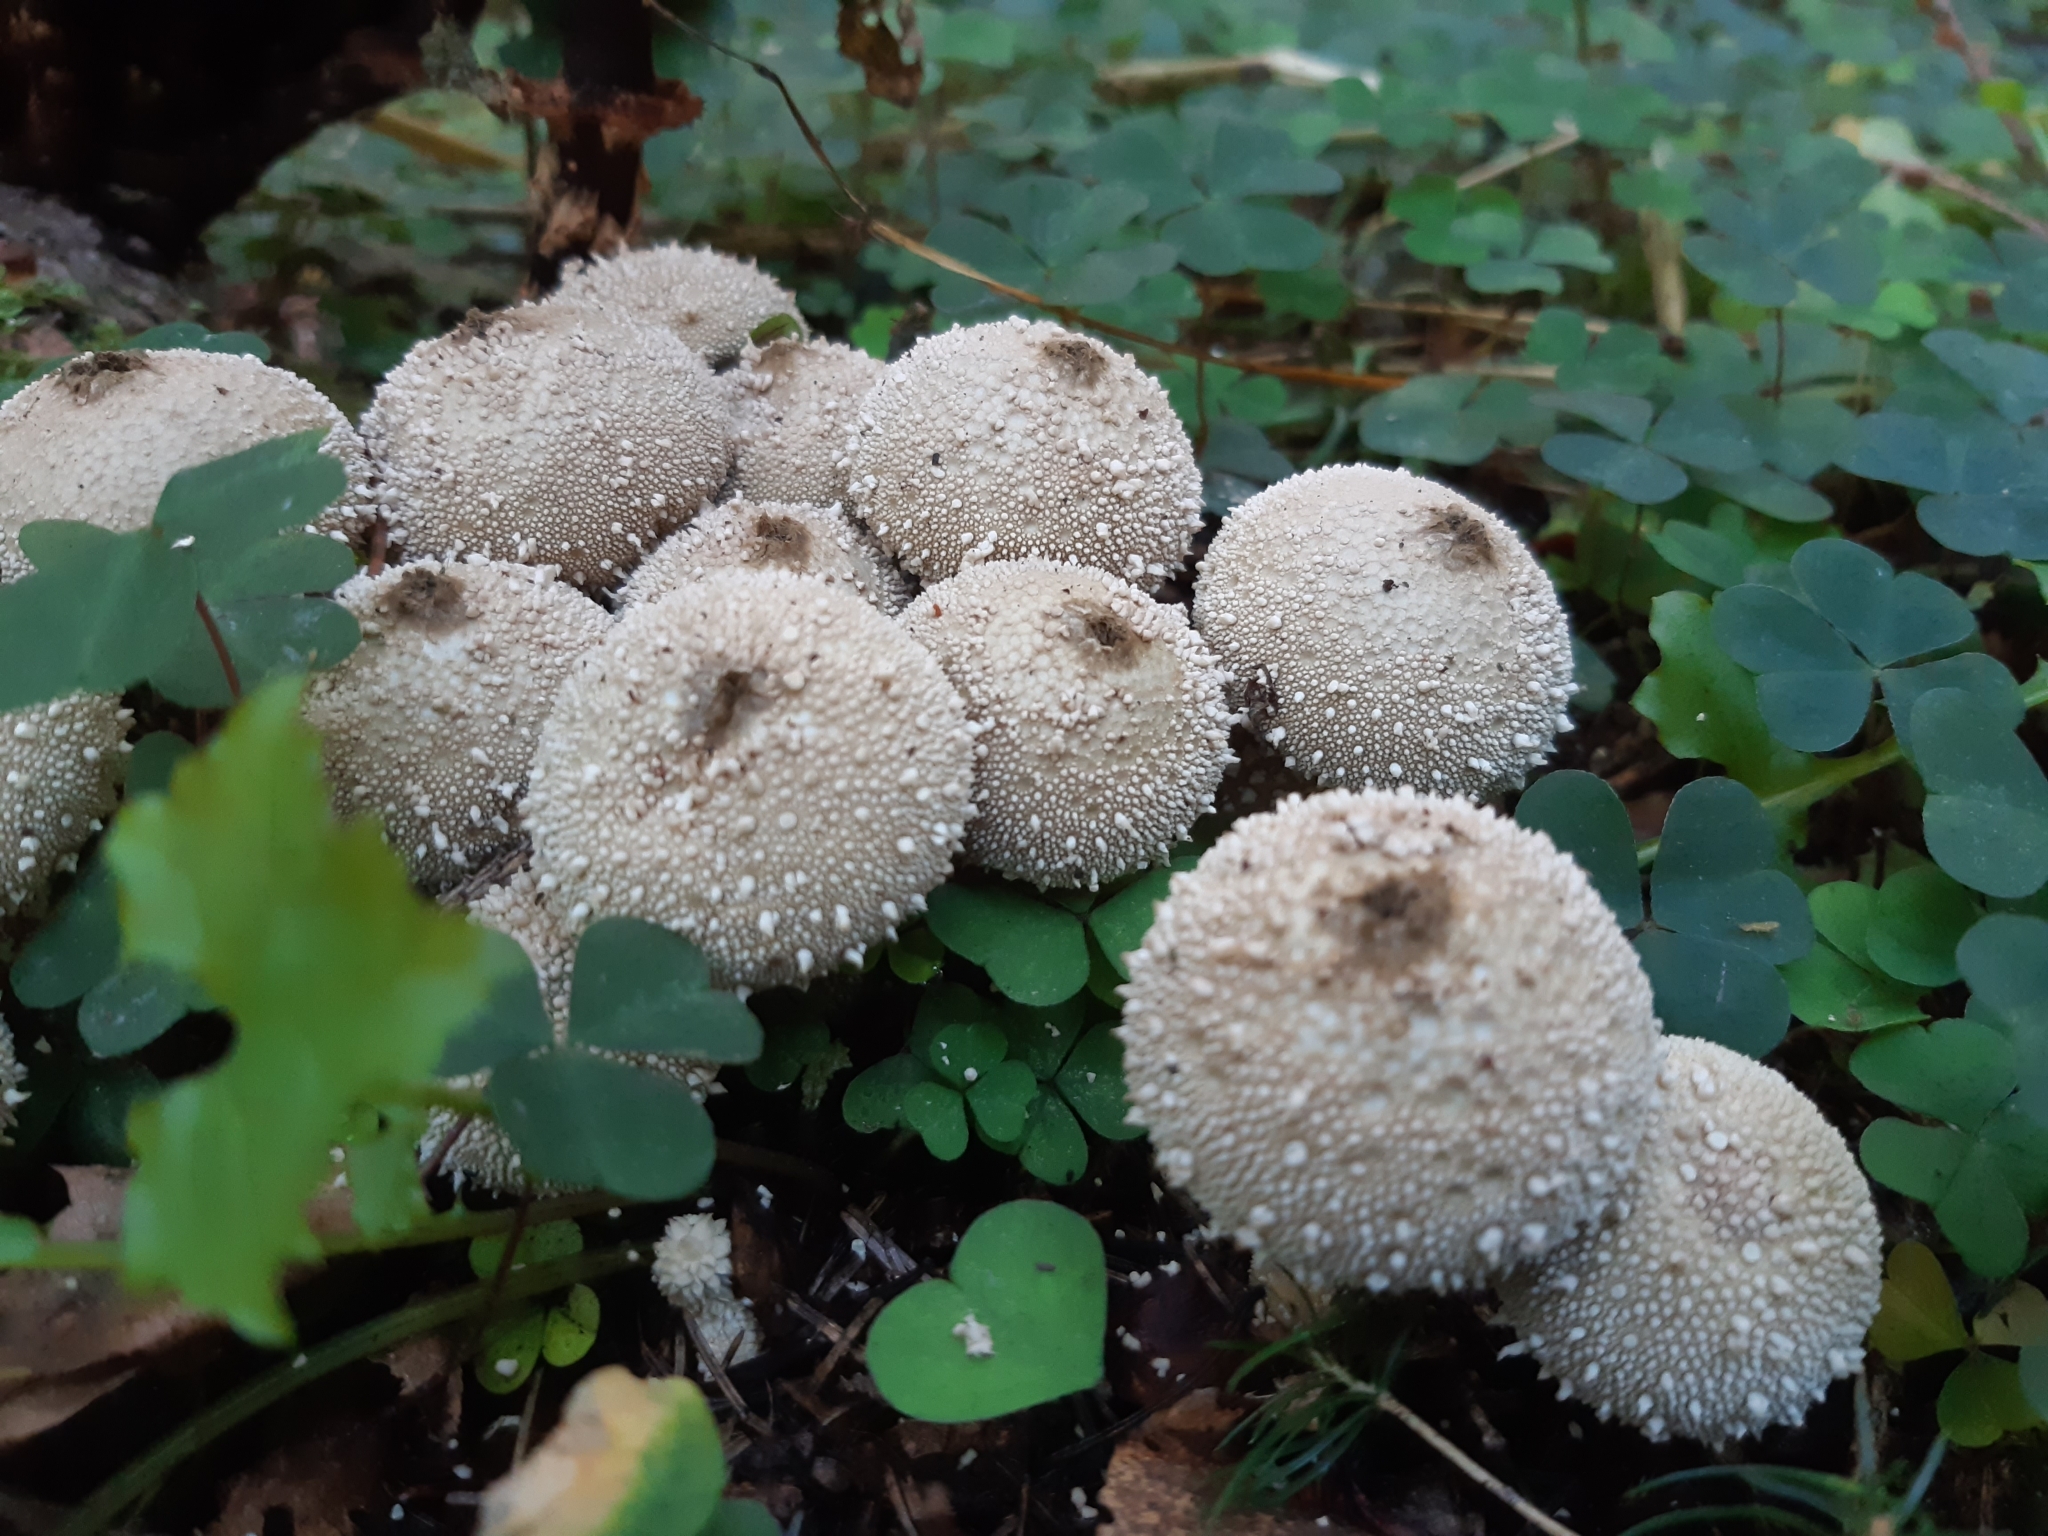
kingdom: Fungi
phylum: Basidiomycota
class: Agaricomycetes
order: Agaricales
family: Lycoperdaceae
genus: Lycoperdon
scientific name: Lycoperdon perlatum
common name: Common puffball
